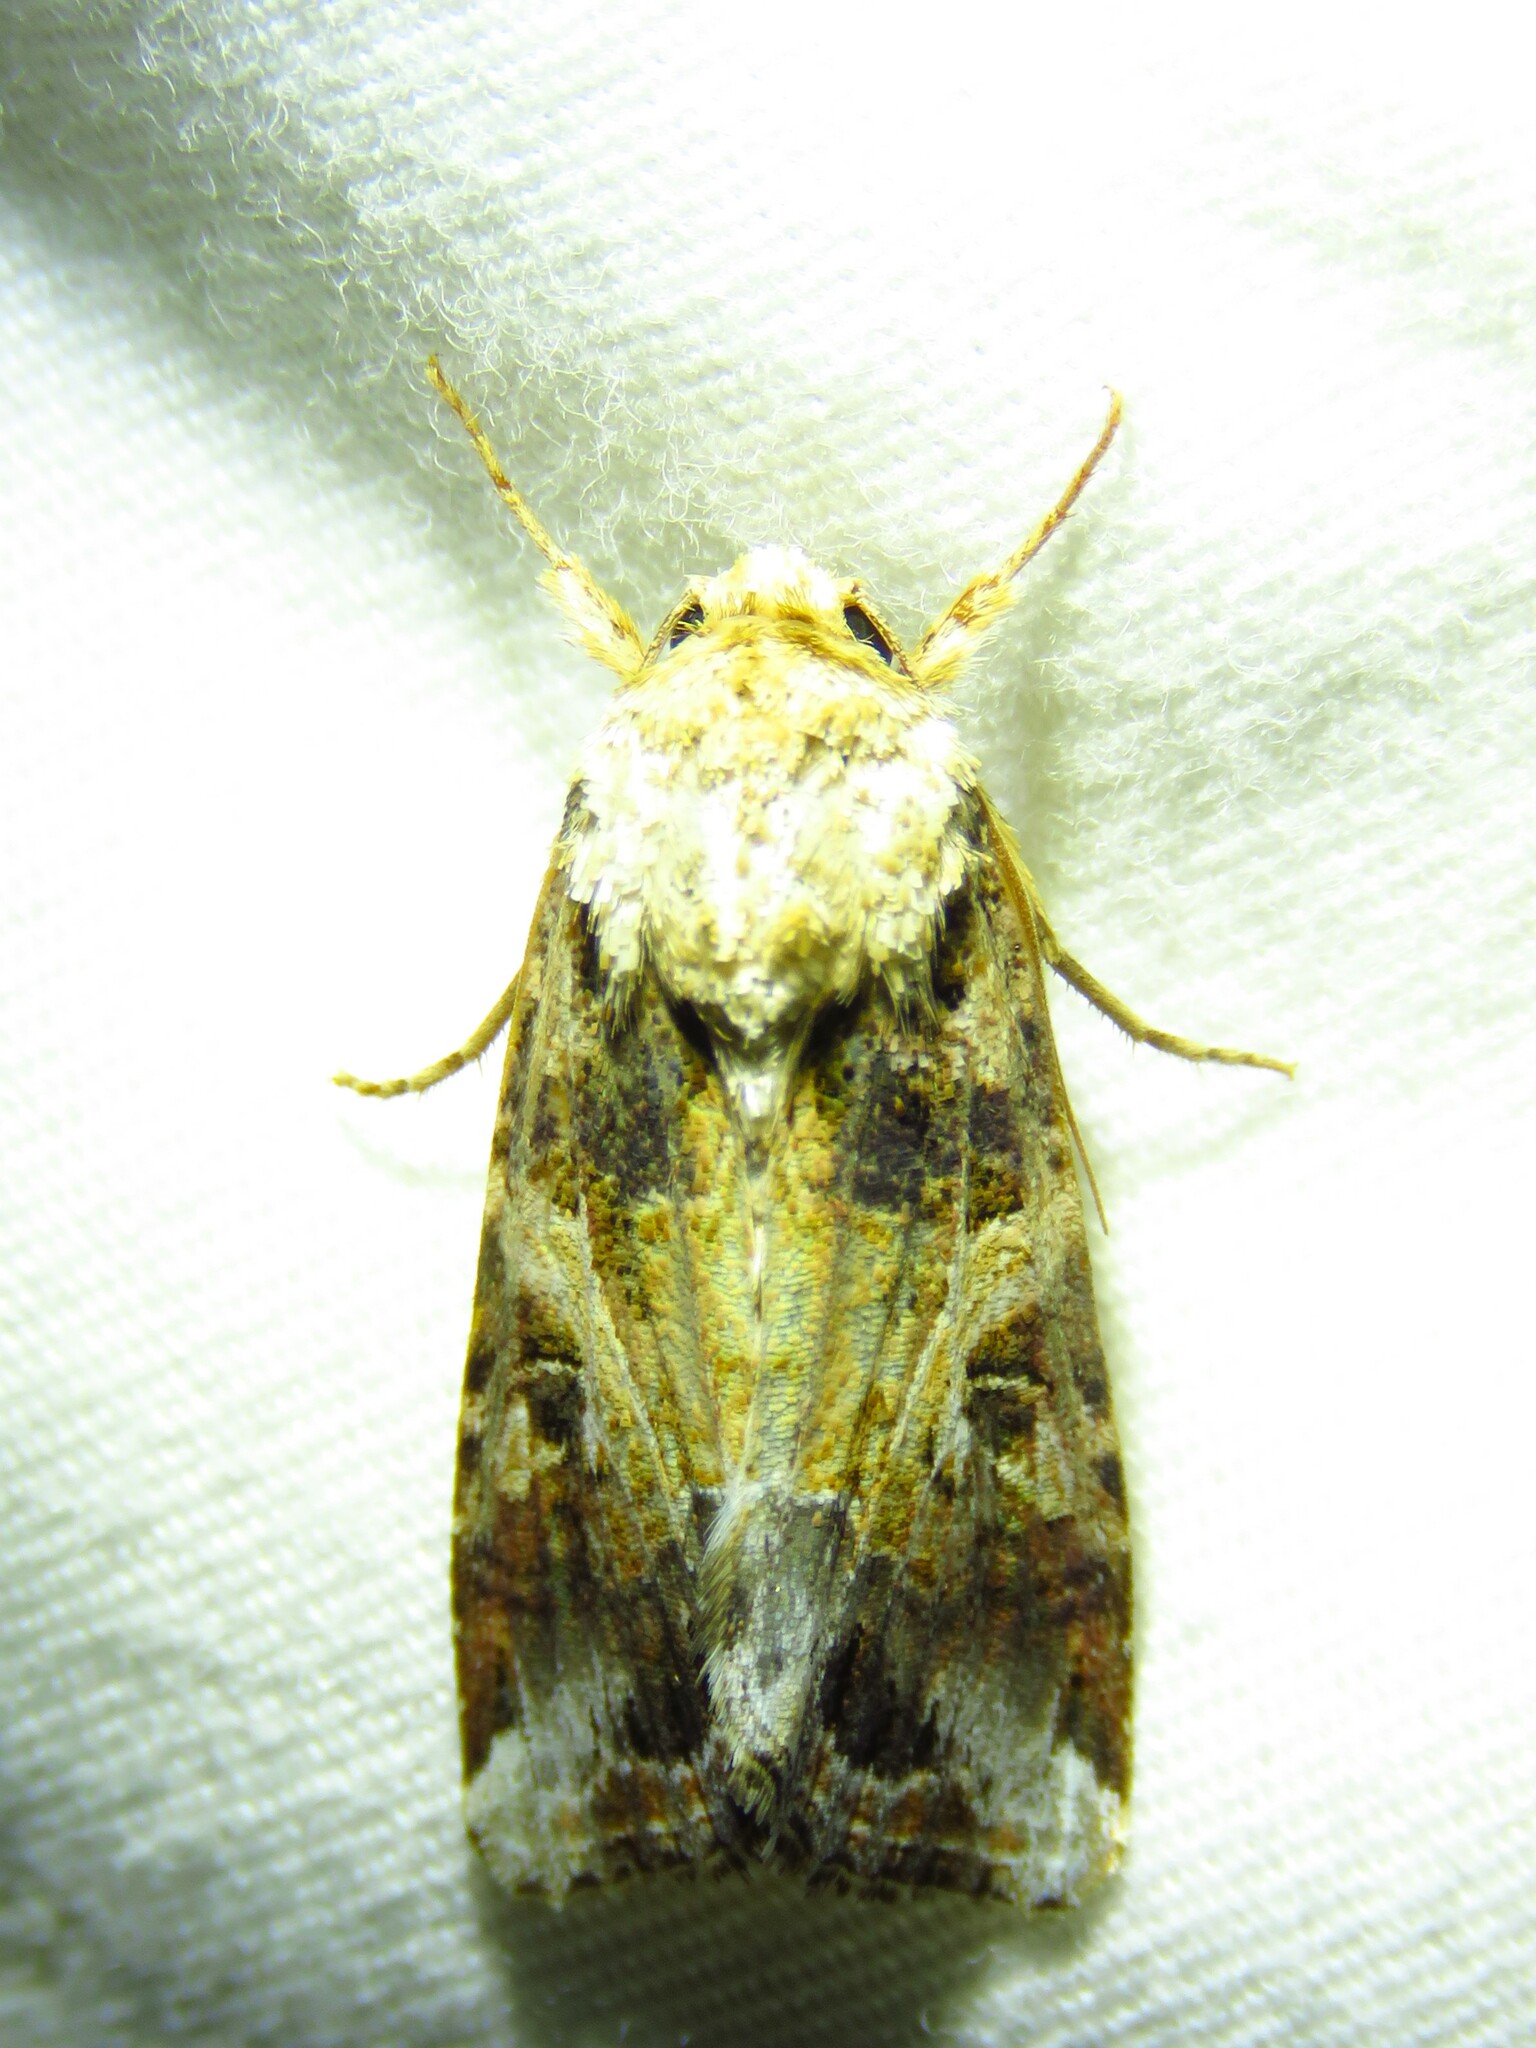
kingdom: Animalia
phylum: Arthropoda
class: Insecta
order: Lepidoptera
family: Noctuidae
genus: Spodoptera
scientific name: Spodoptera ornithogalli
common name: Yellow-striped armyworm
